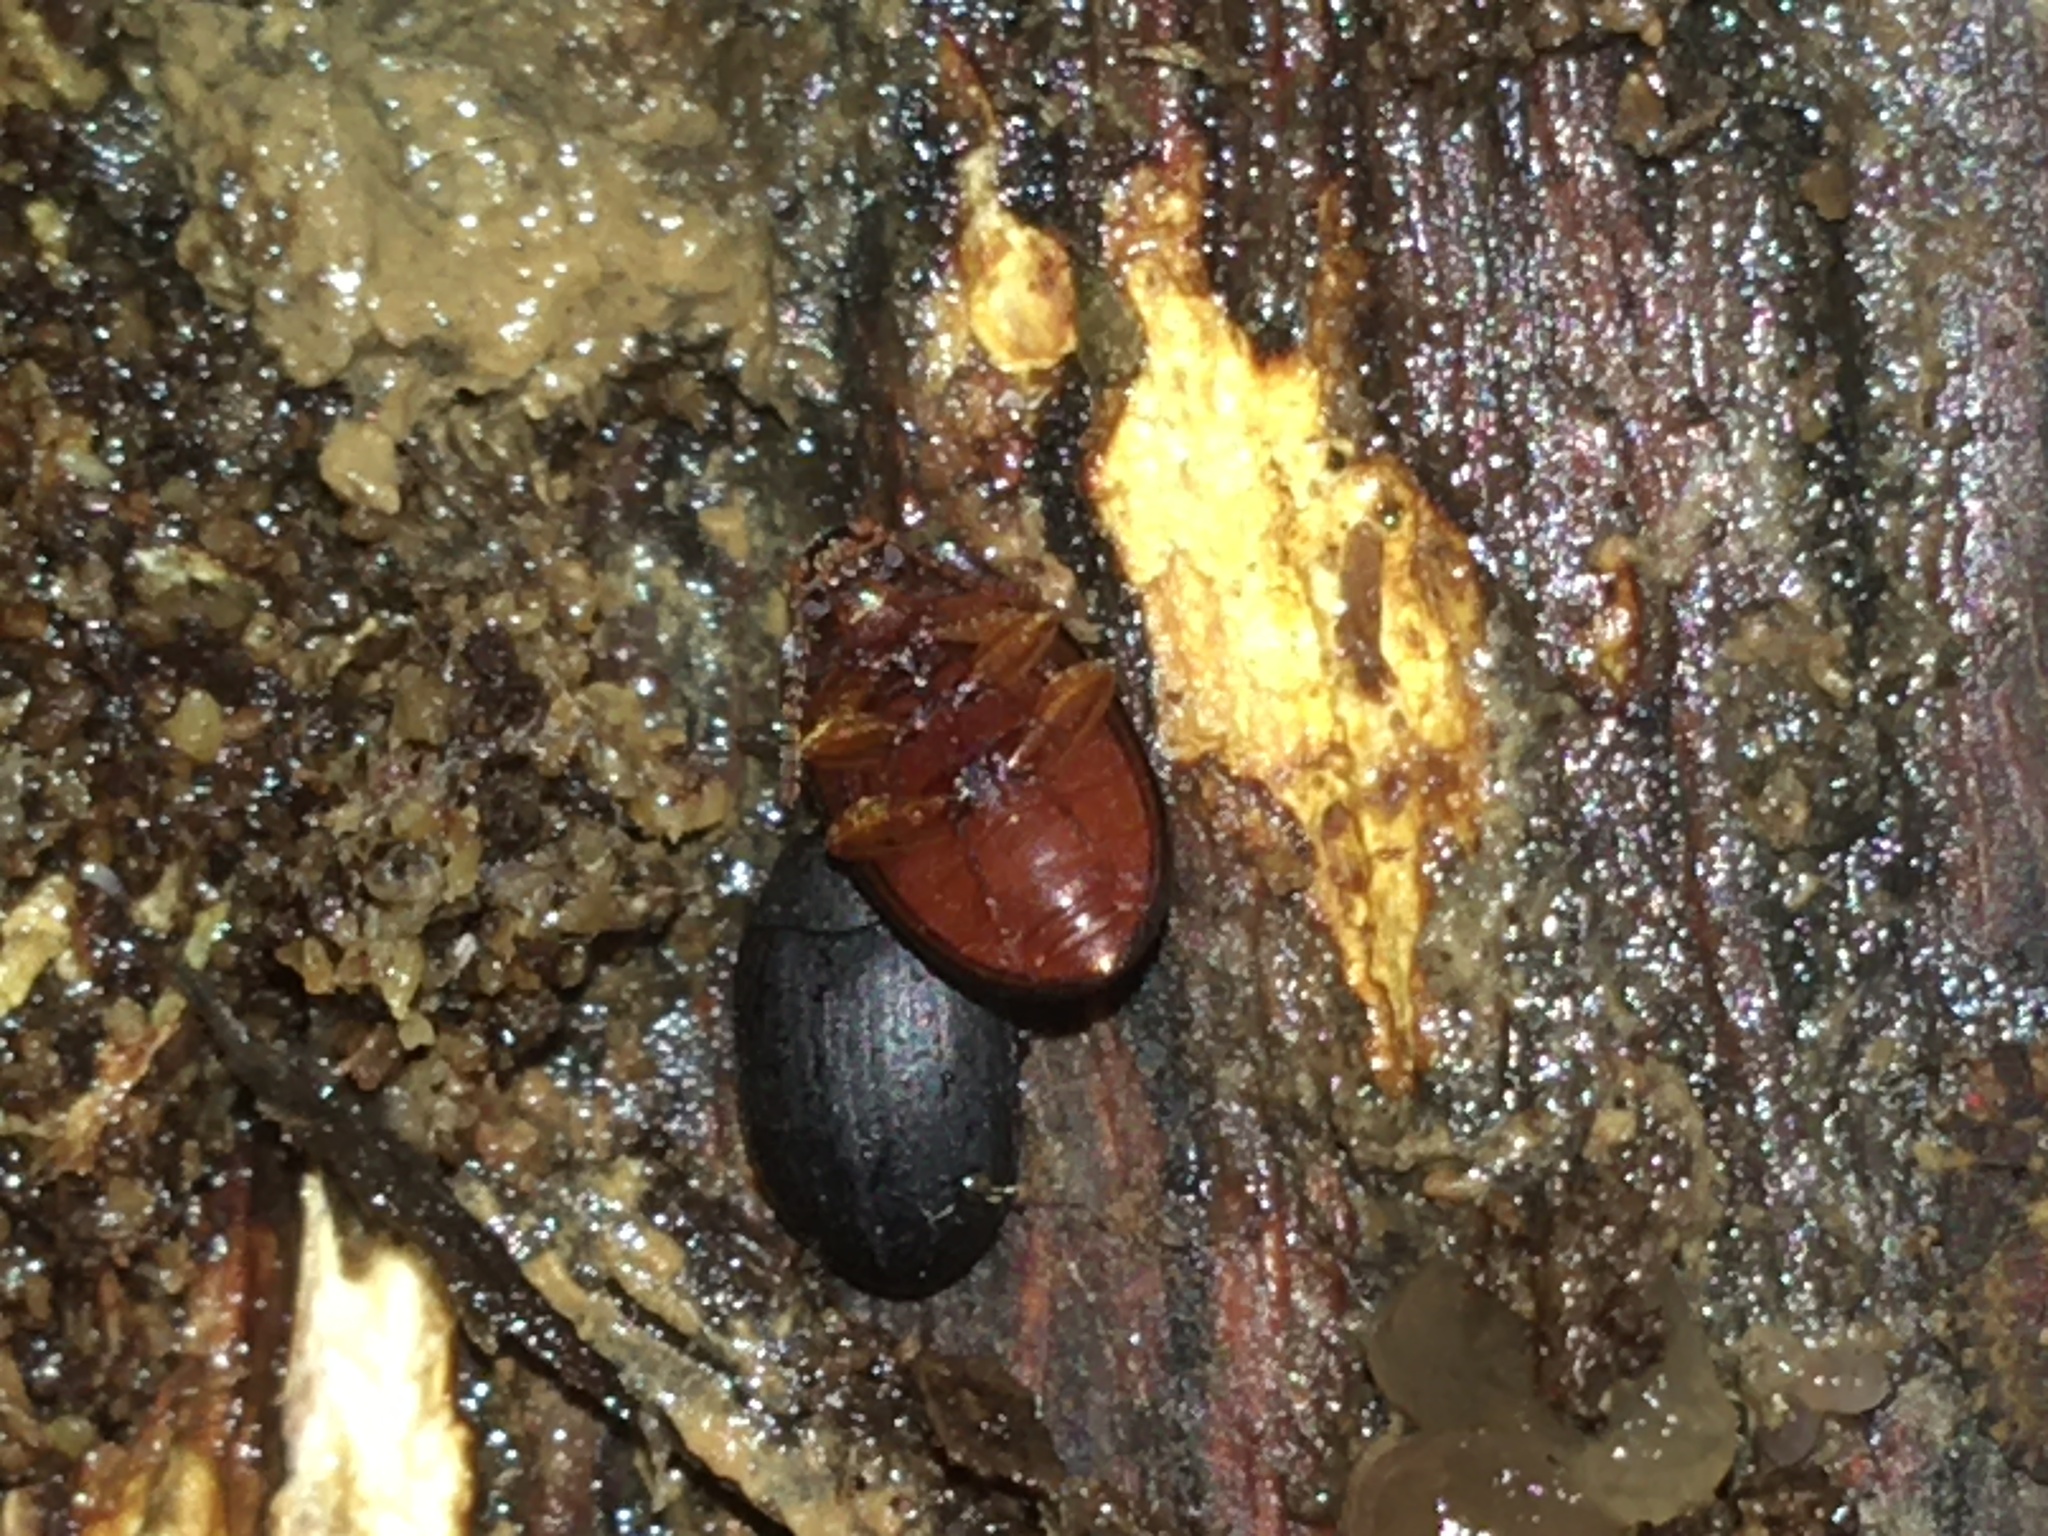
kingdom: Animalia
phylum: Arthropoda
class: Insecta
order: Coleoptera
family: Tenebrionidae
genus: Platydema
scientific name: Platydema ruficornis
